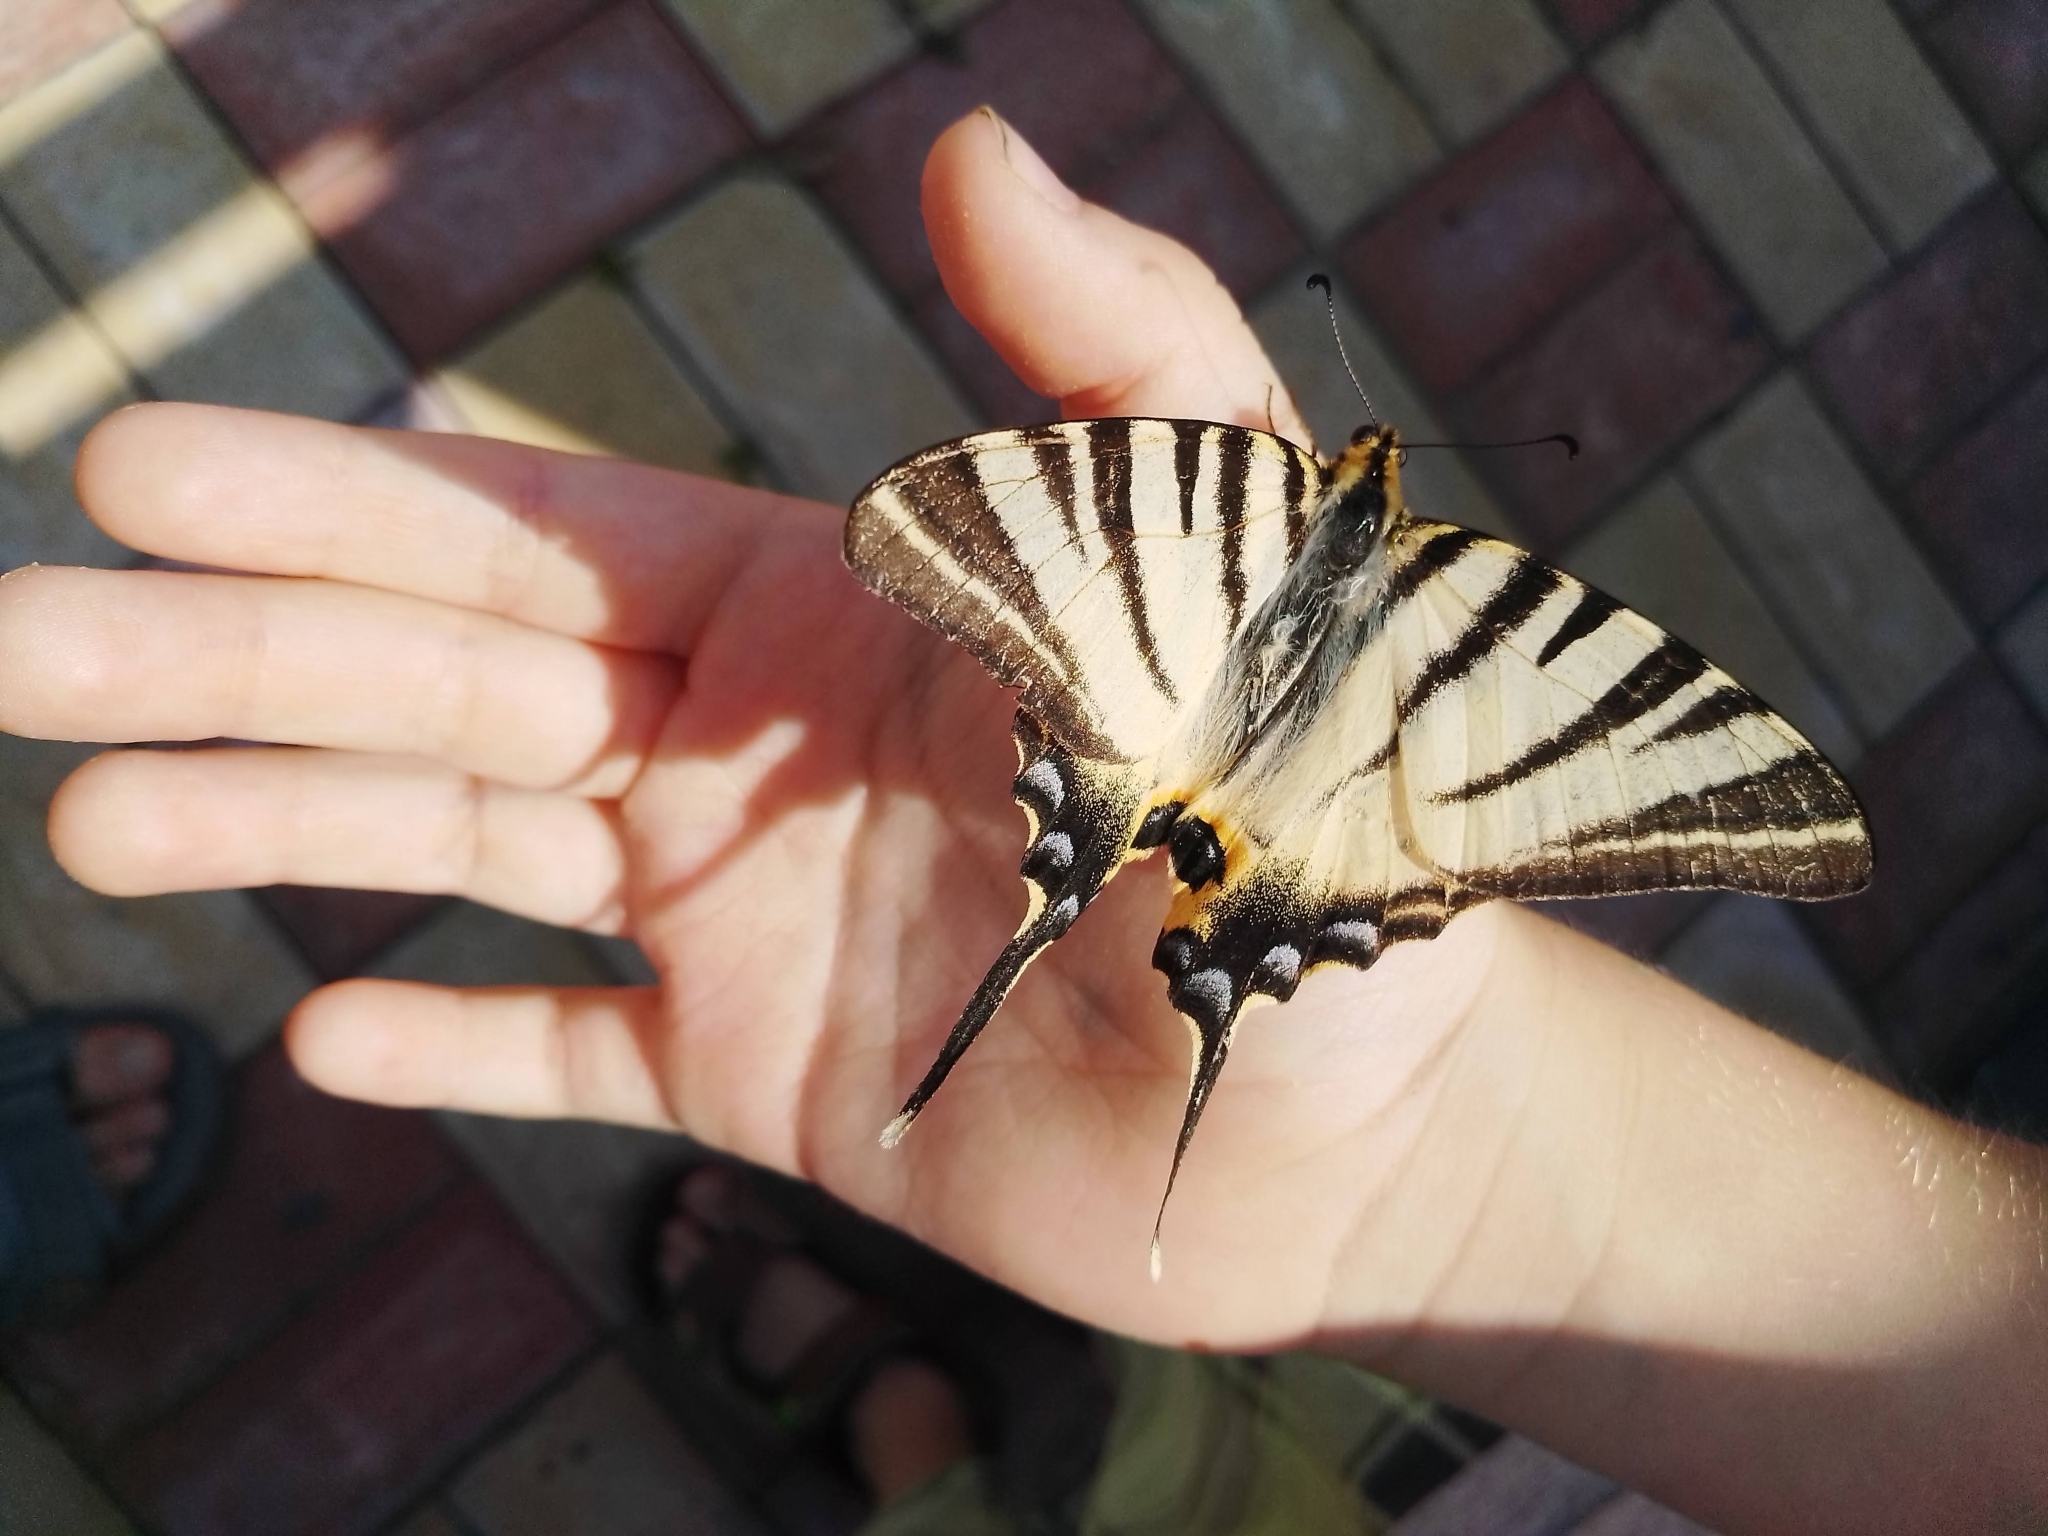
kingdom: Animalia
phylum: Arthropoda
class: Insecta
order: Lepidoptera
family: Papilionidae
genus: Iphiclides
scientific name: Iphiclides podalirius
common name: Scarce swallowtail
